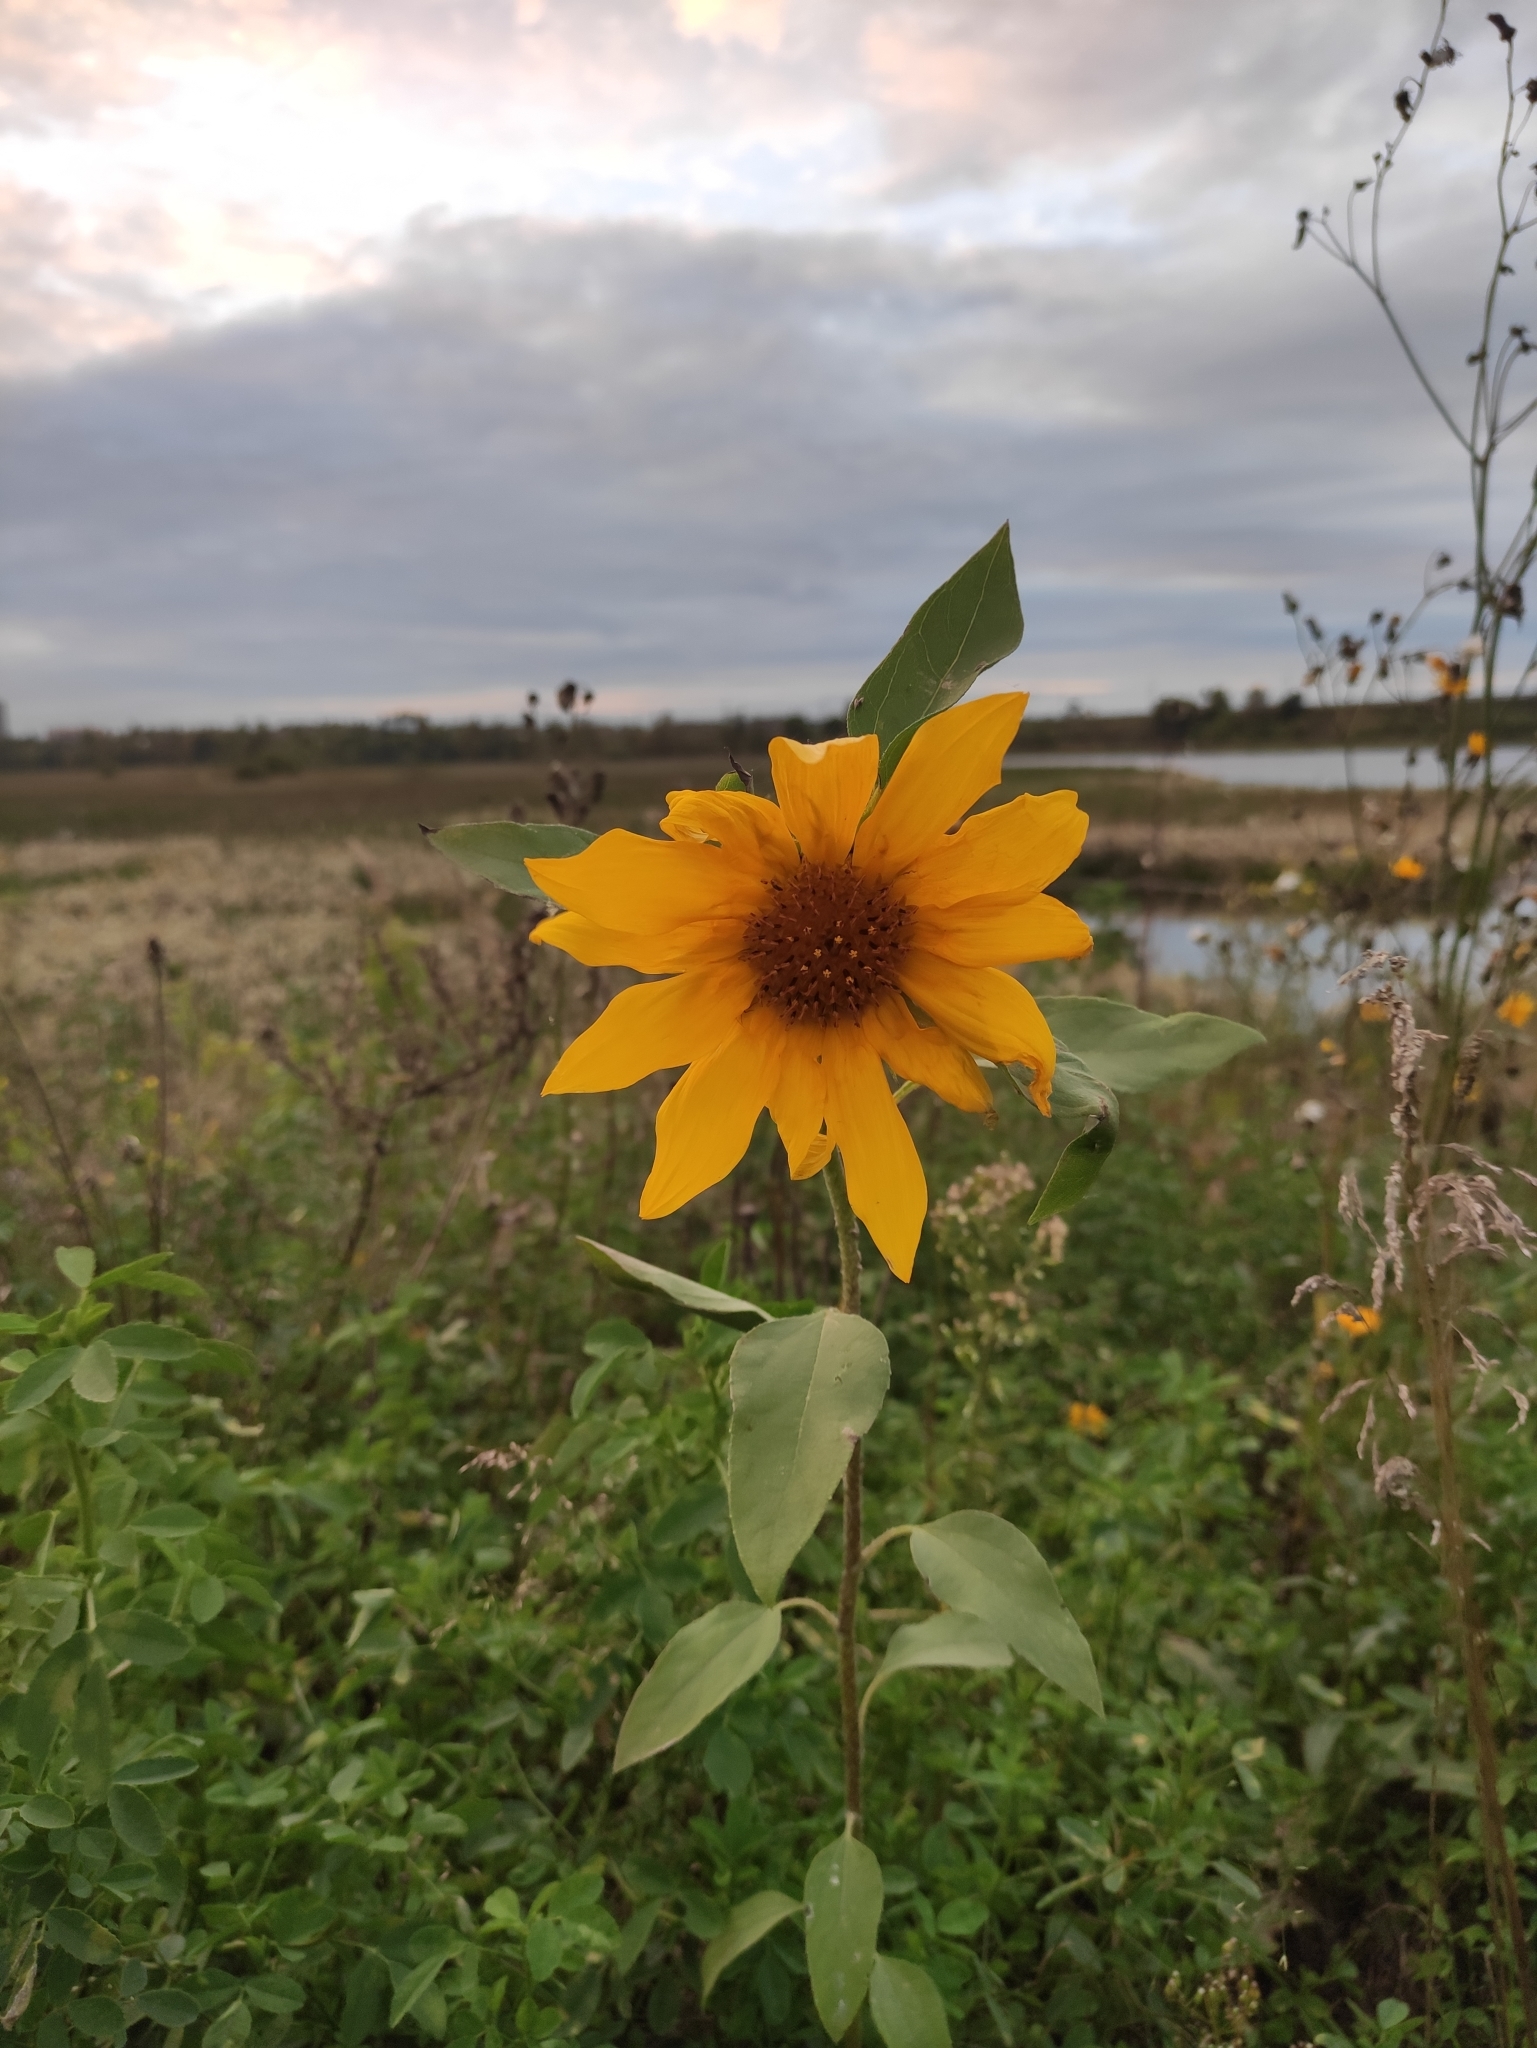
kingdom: Plantae
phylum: Tracheophyta
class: Magnoliopsida
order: Asterales
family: Asteraceae
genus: Helianthus
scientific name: Helianthus annuus
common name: Sunflower
